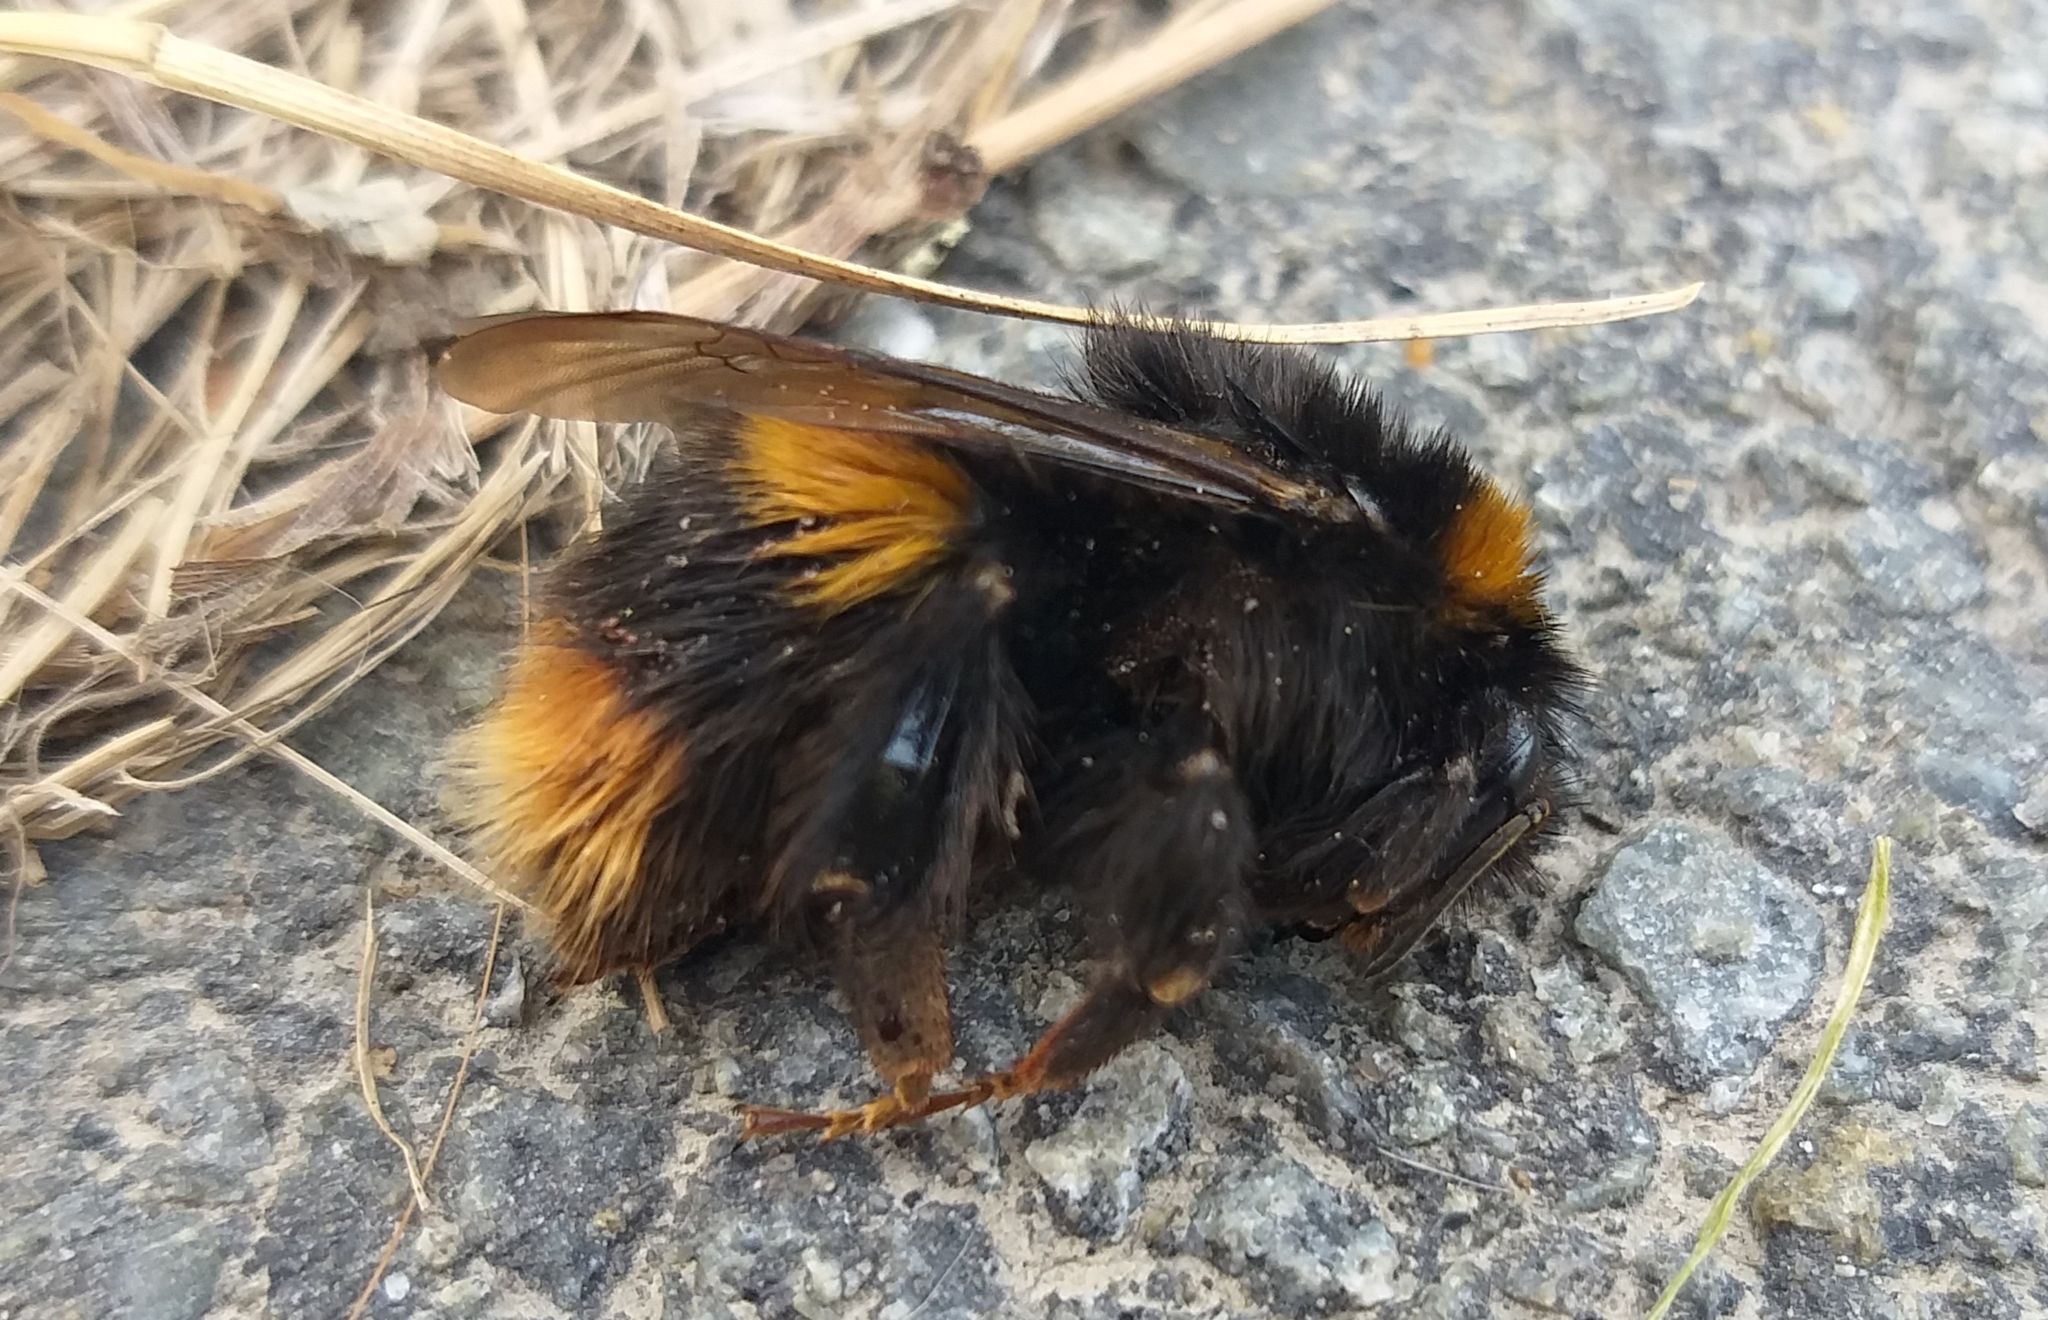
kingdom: Animalia
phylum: Arthropoda
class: Insecta
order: Hymenoptera
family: Apidae
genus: Bombus
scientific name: Bombus terrestris
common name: Buff-tailed bumblebee
